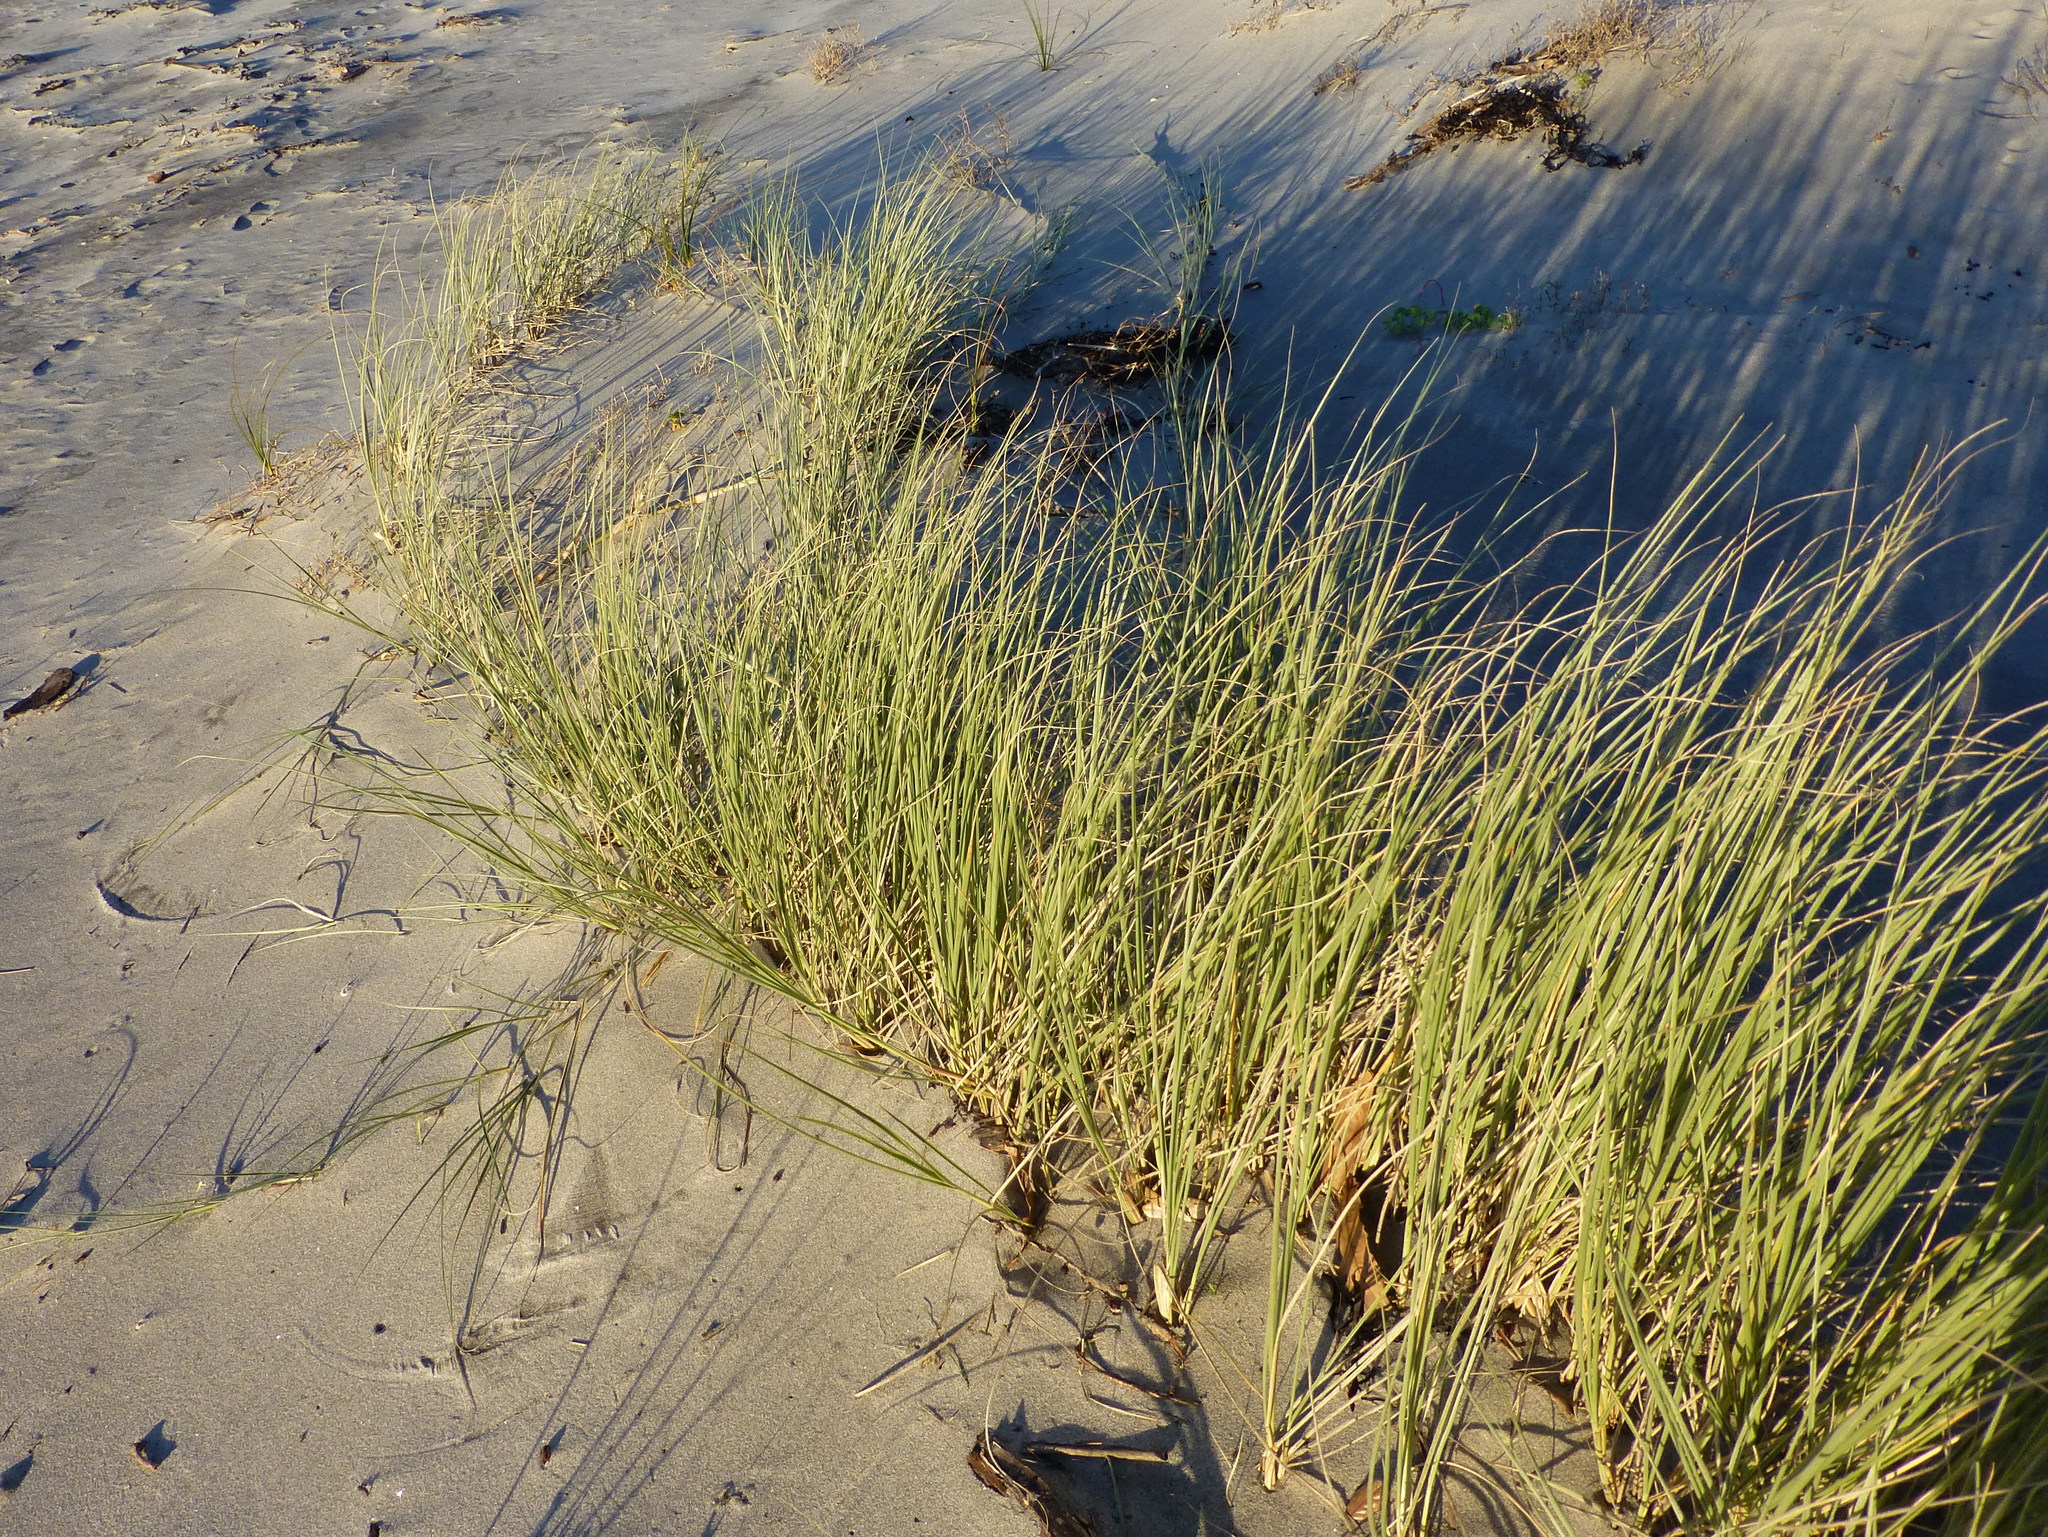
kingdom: Plantae
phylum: Tracheophyta
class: Liliopsida
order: Poales
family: Poaceae
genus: Spinifex
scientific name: Spinifex sericeus
